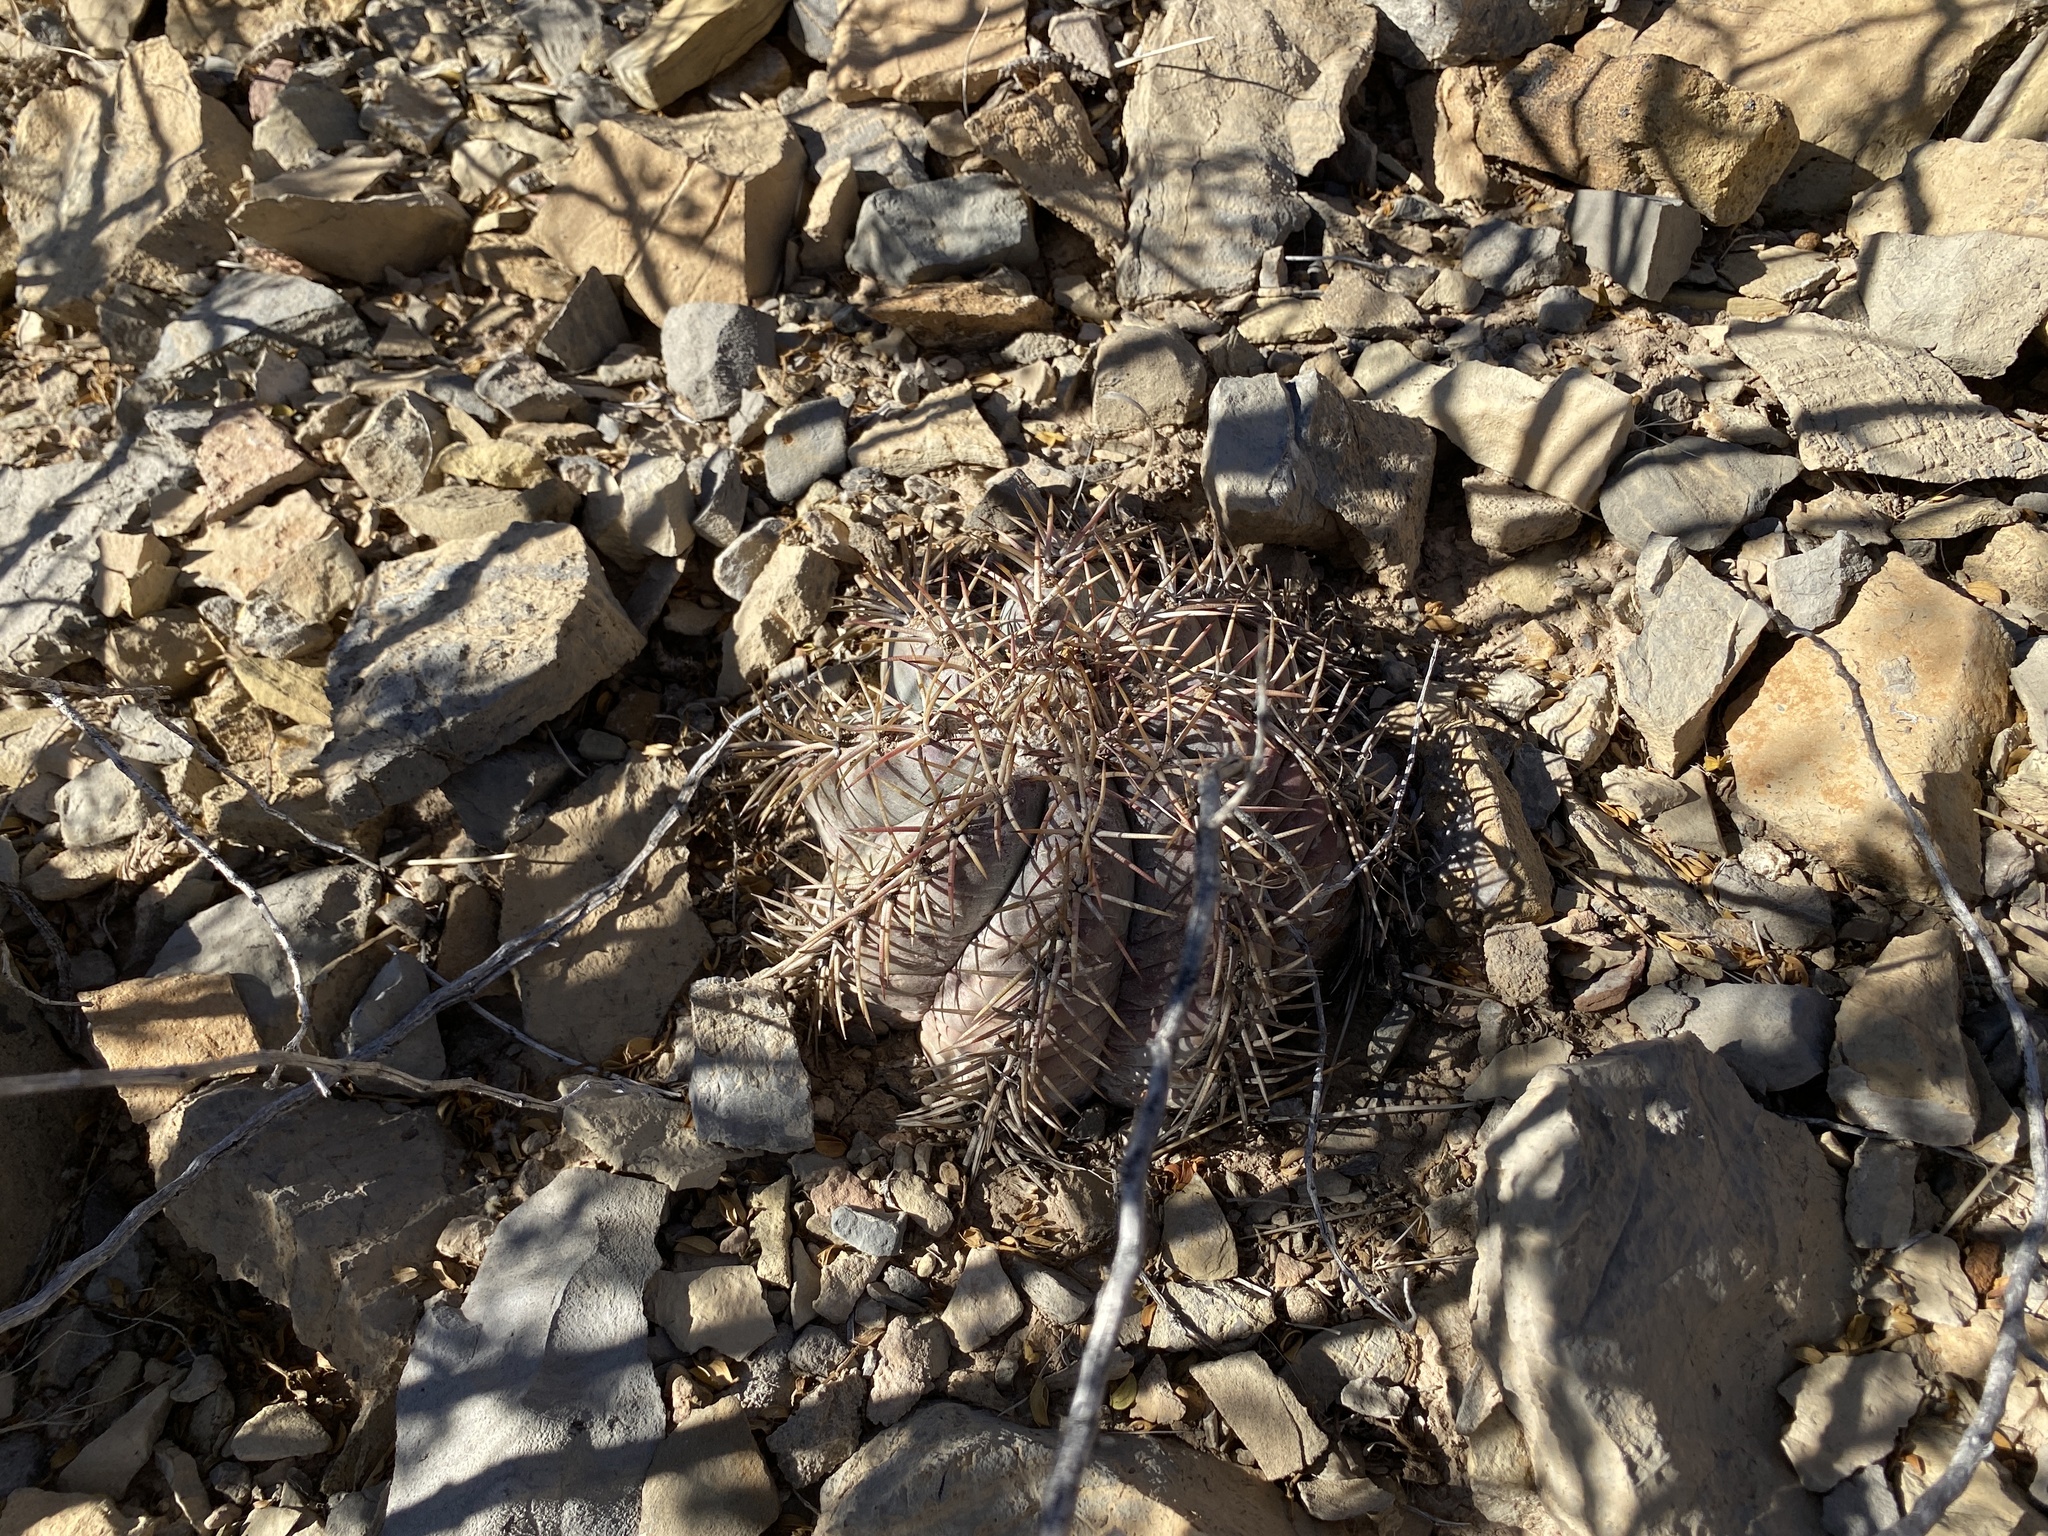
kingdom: Plantae
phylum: Tracheophyta
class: Magnoliopsida
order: Caryophyllales
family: Cactaceae
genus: Echinocactus
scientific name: Echinocactus horizonthalonius
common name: Devilshead
